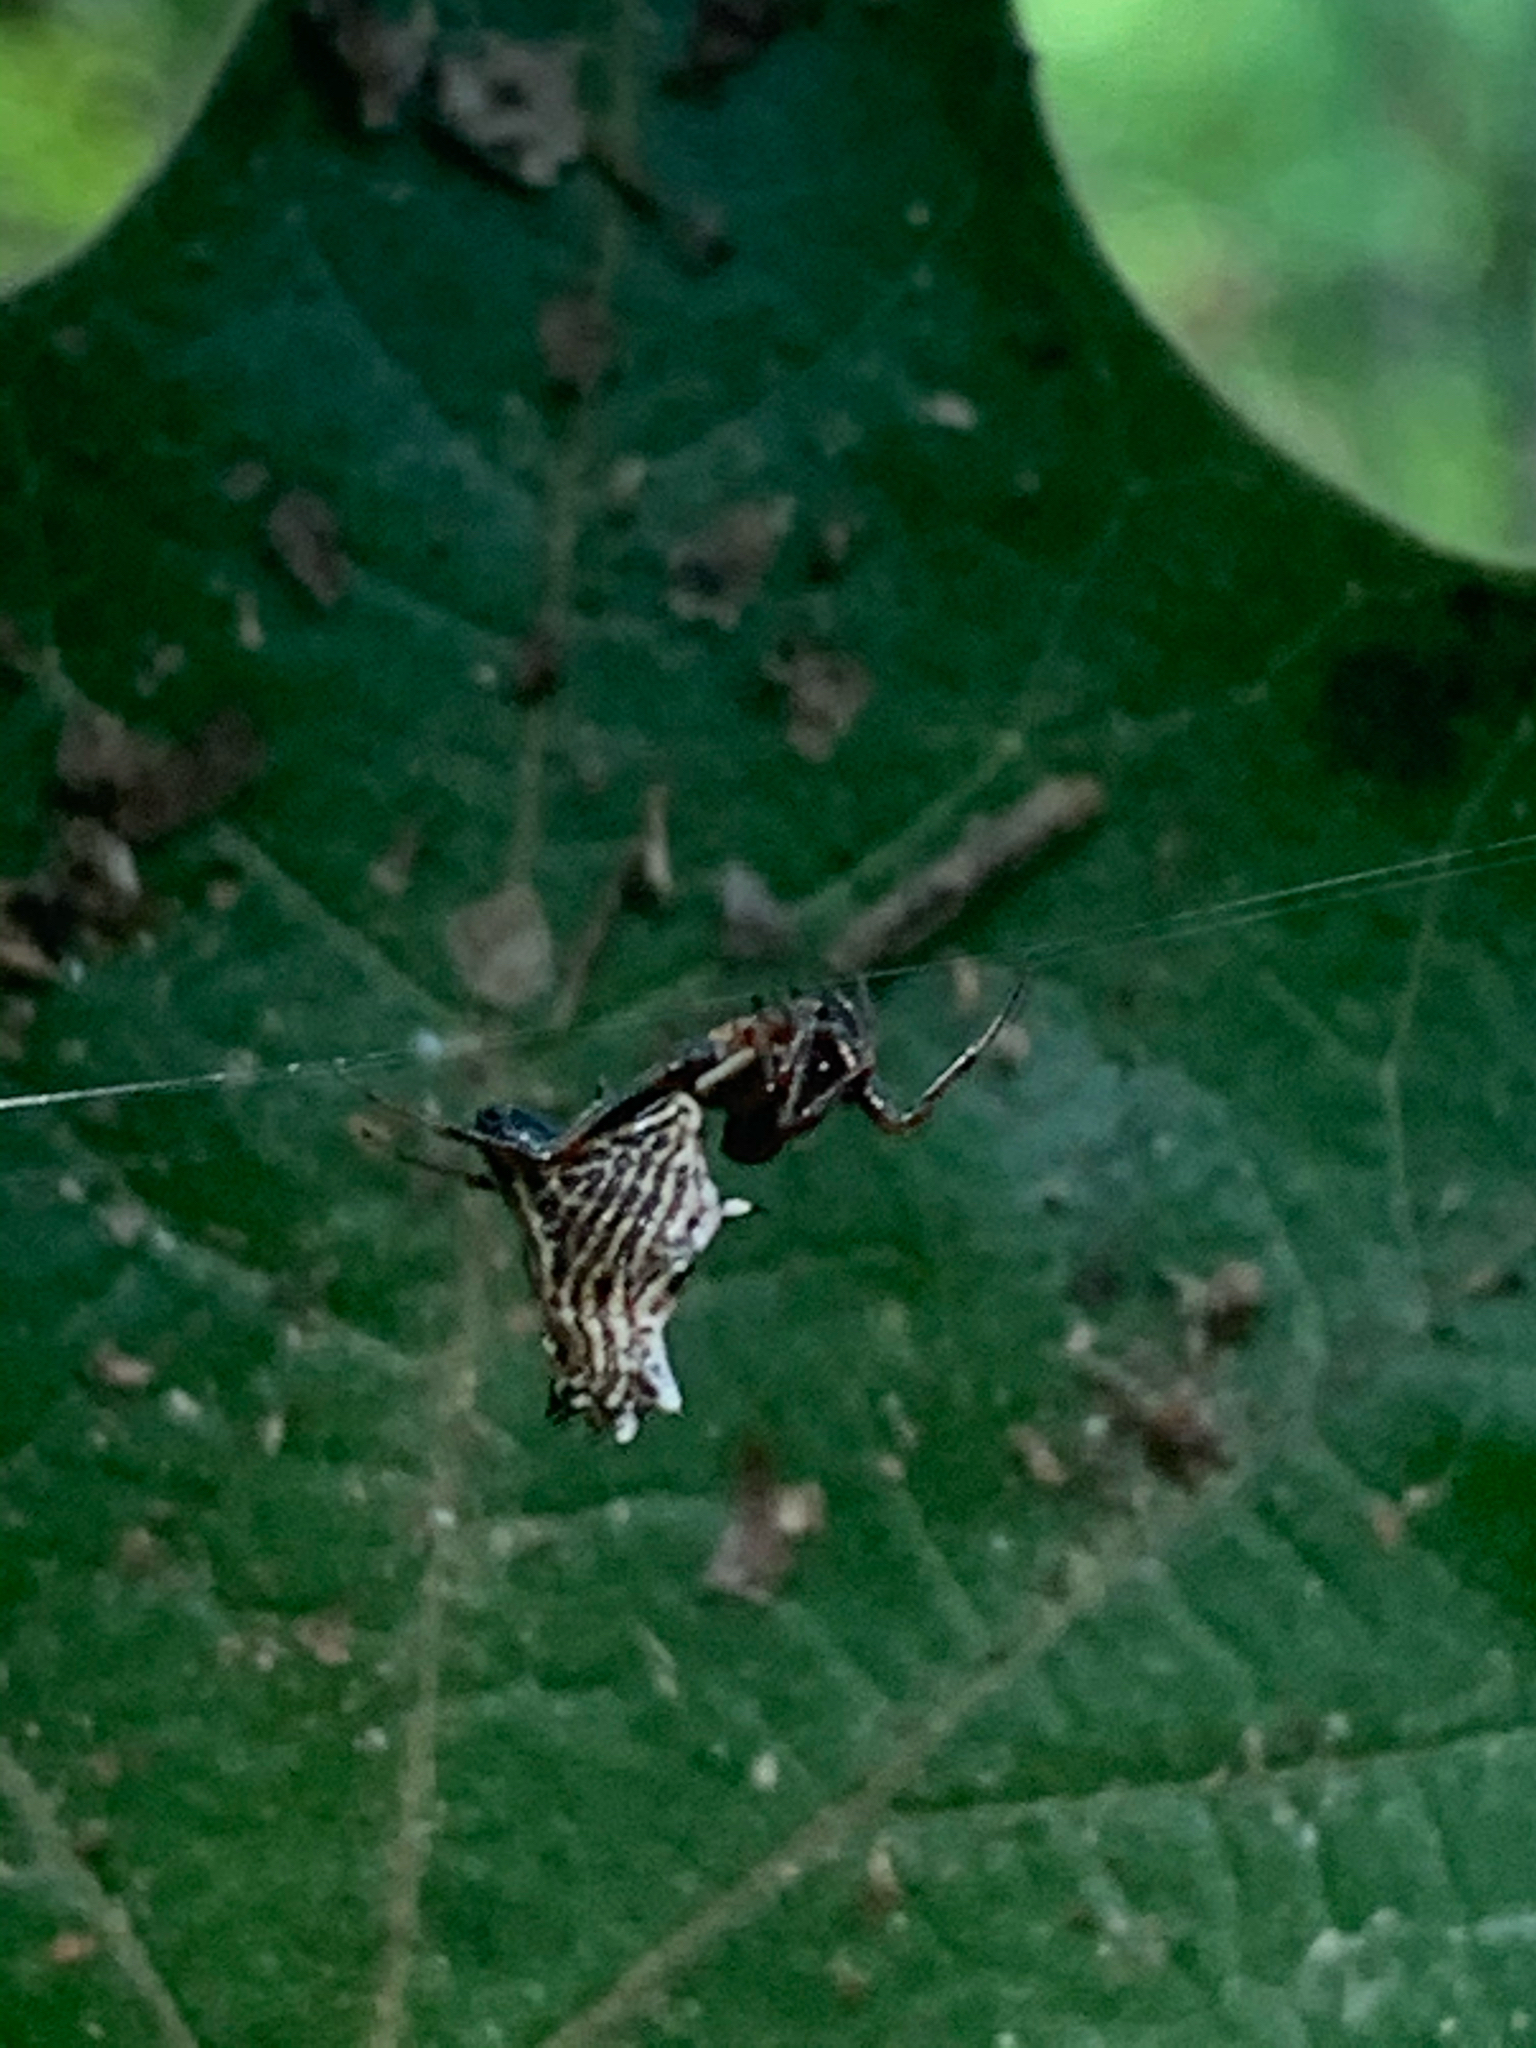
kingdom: Animalia
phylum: Arthropoda
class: Arachnida
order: Araneae
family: Araneidae
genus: Micrathena
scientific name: Micrathena gracilis
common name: Orb weavers
